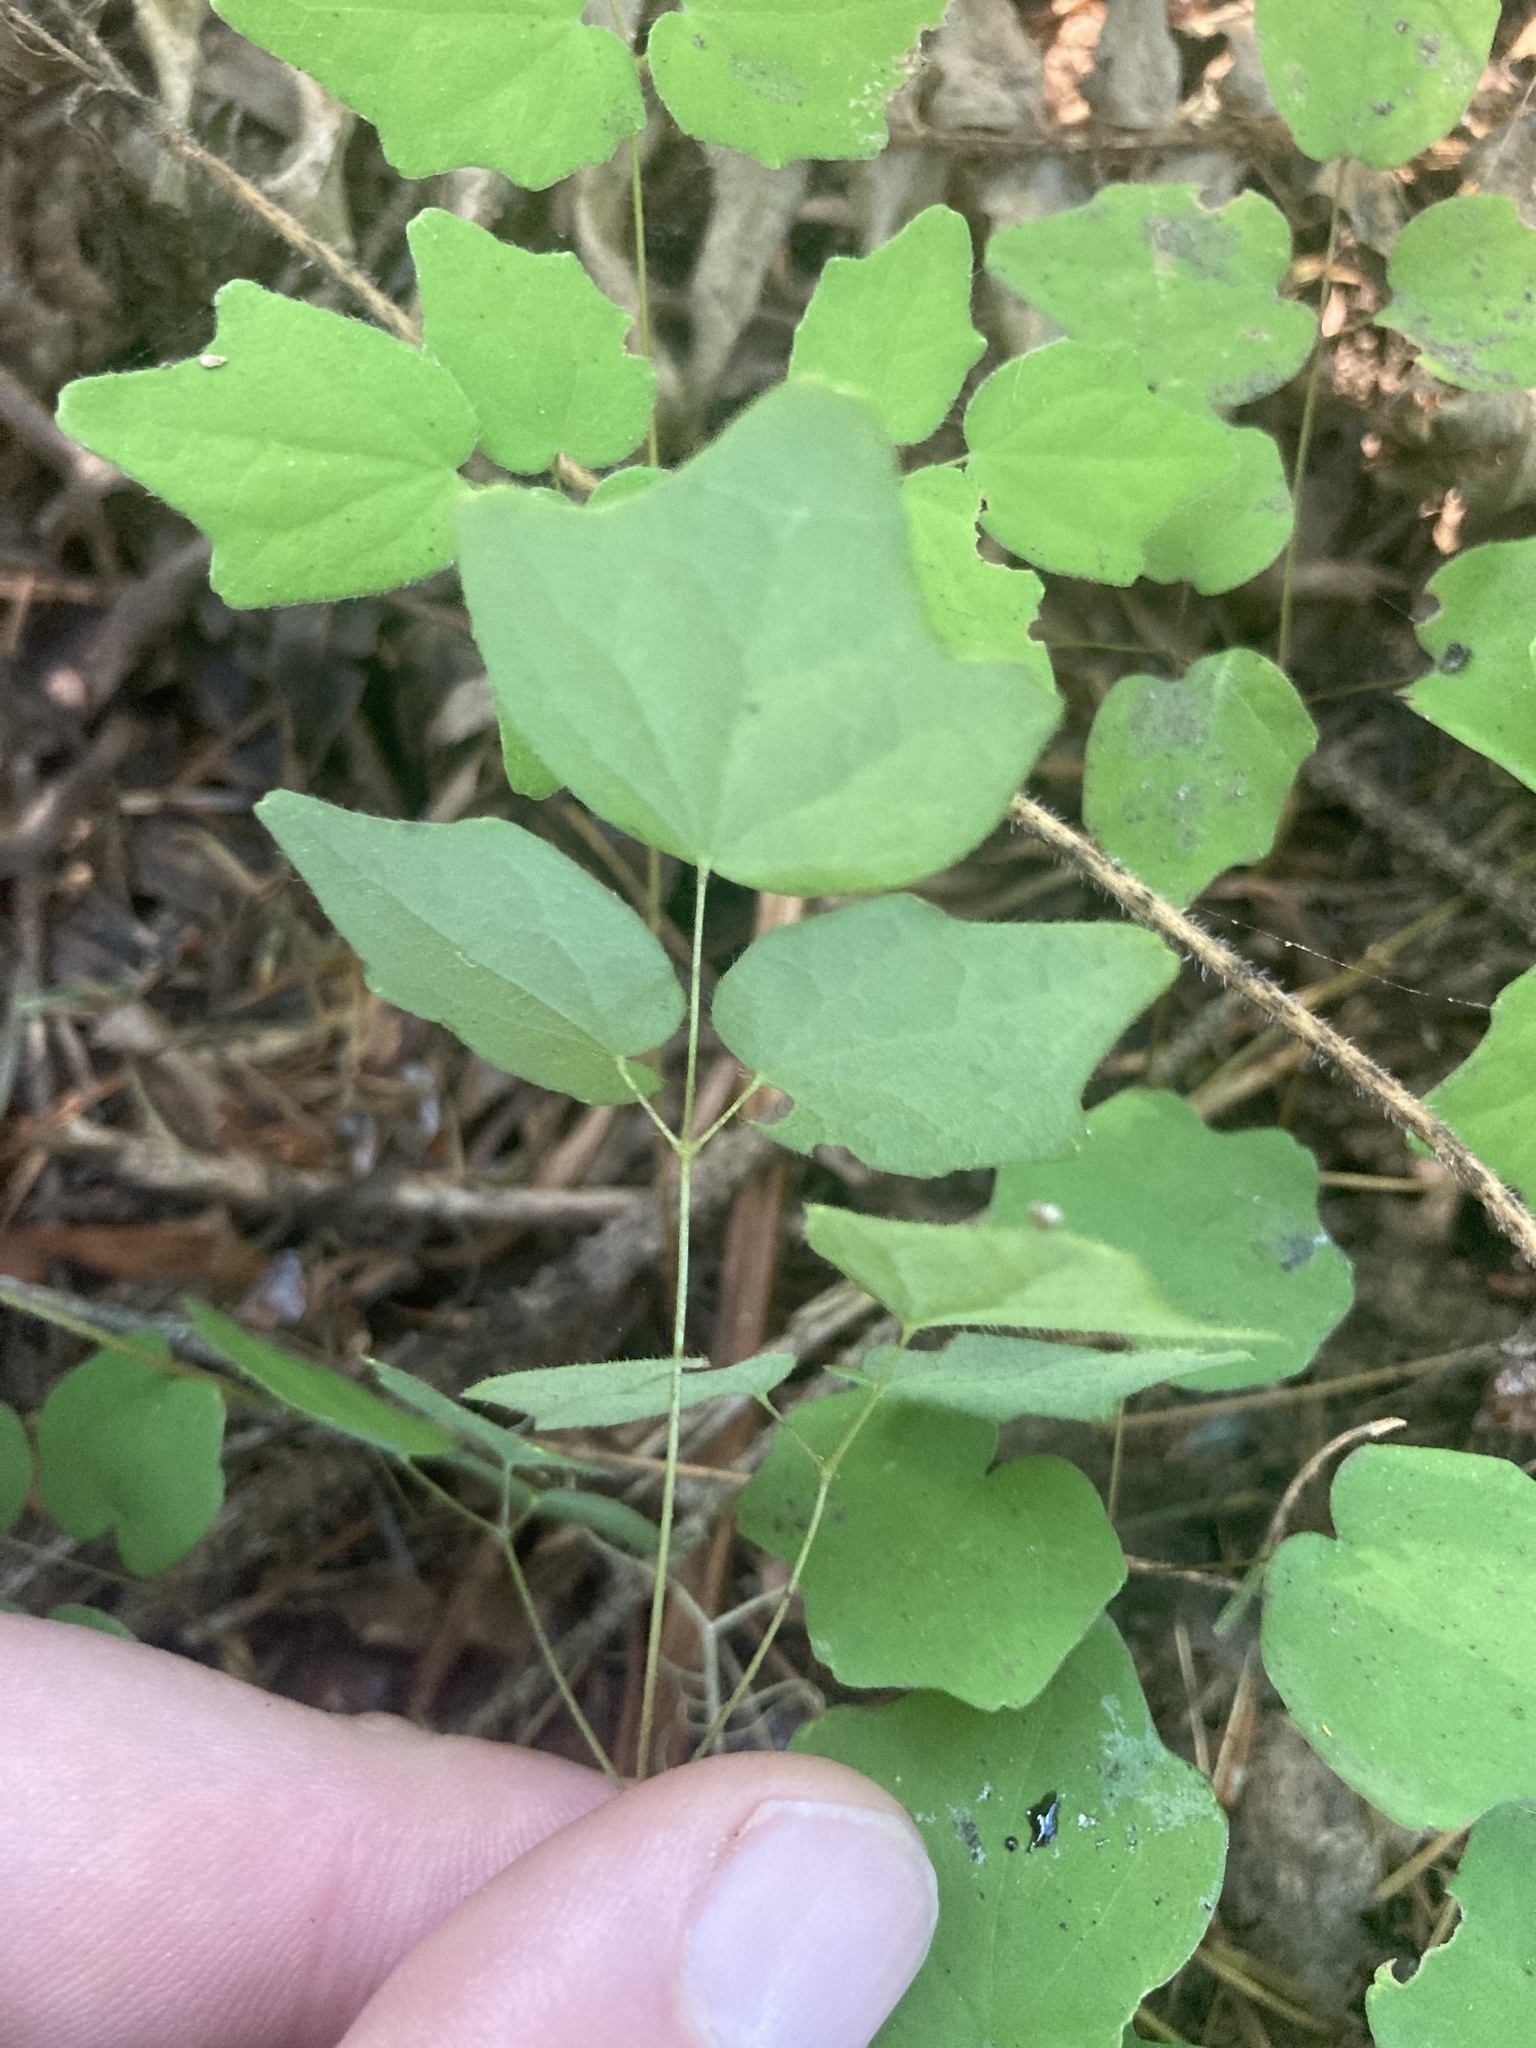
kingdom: Plantae
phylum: Tracheophyta
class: Magnoliopsida
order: Ranunculales
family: Berberidaceae
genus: Vancouveria
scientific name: Vancouveria hexandra
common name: Northern inside-out-flower
